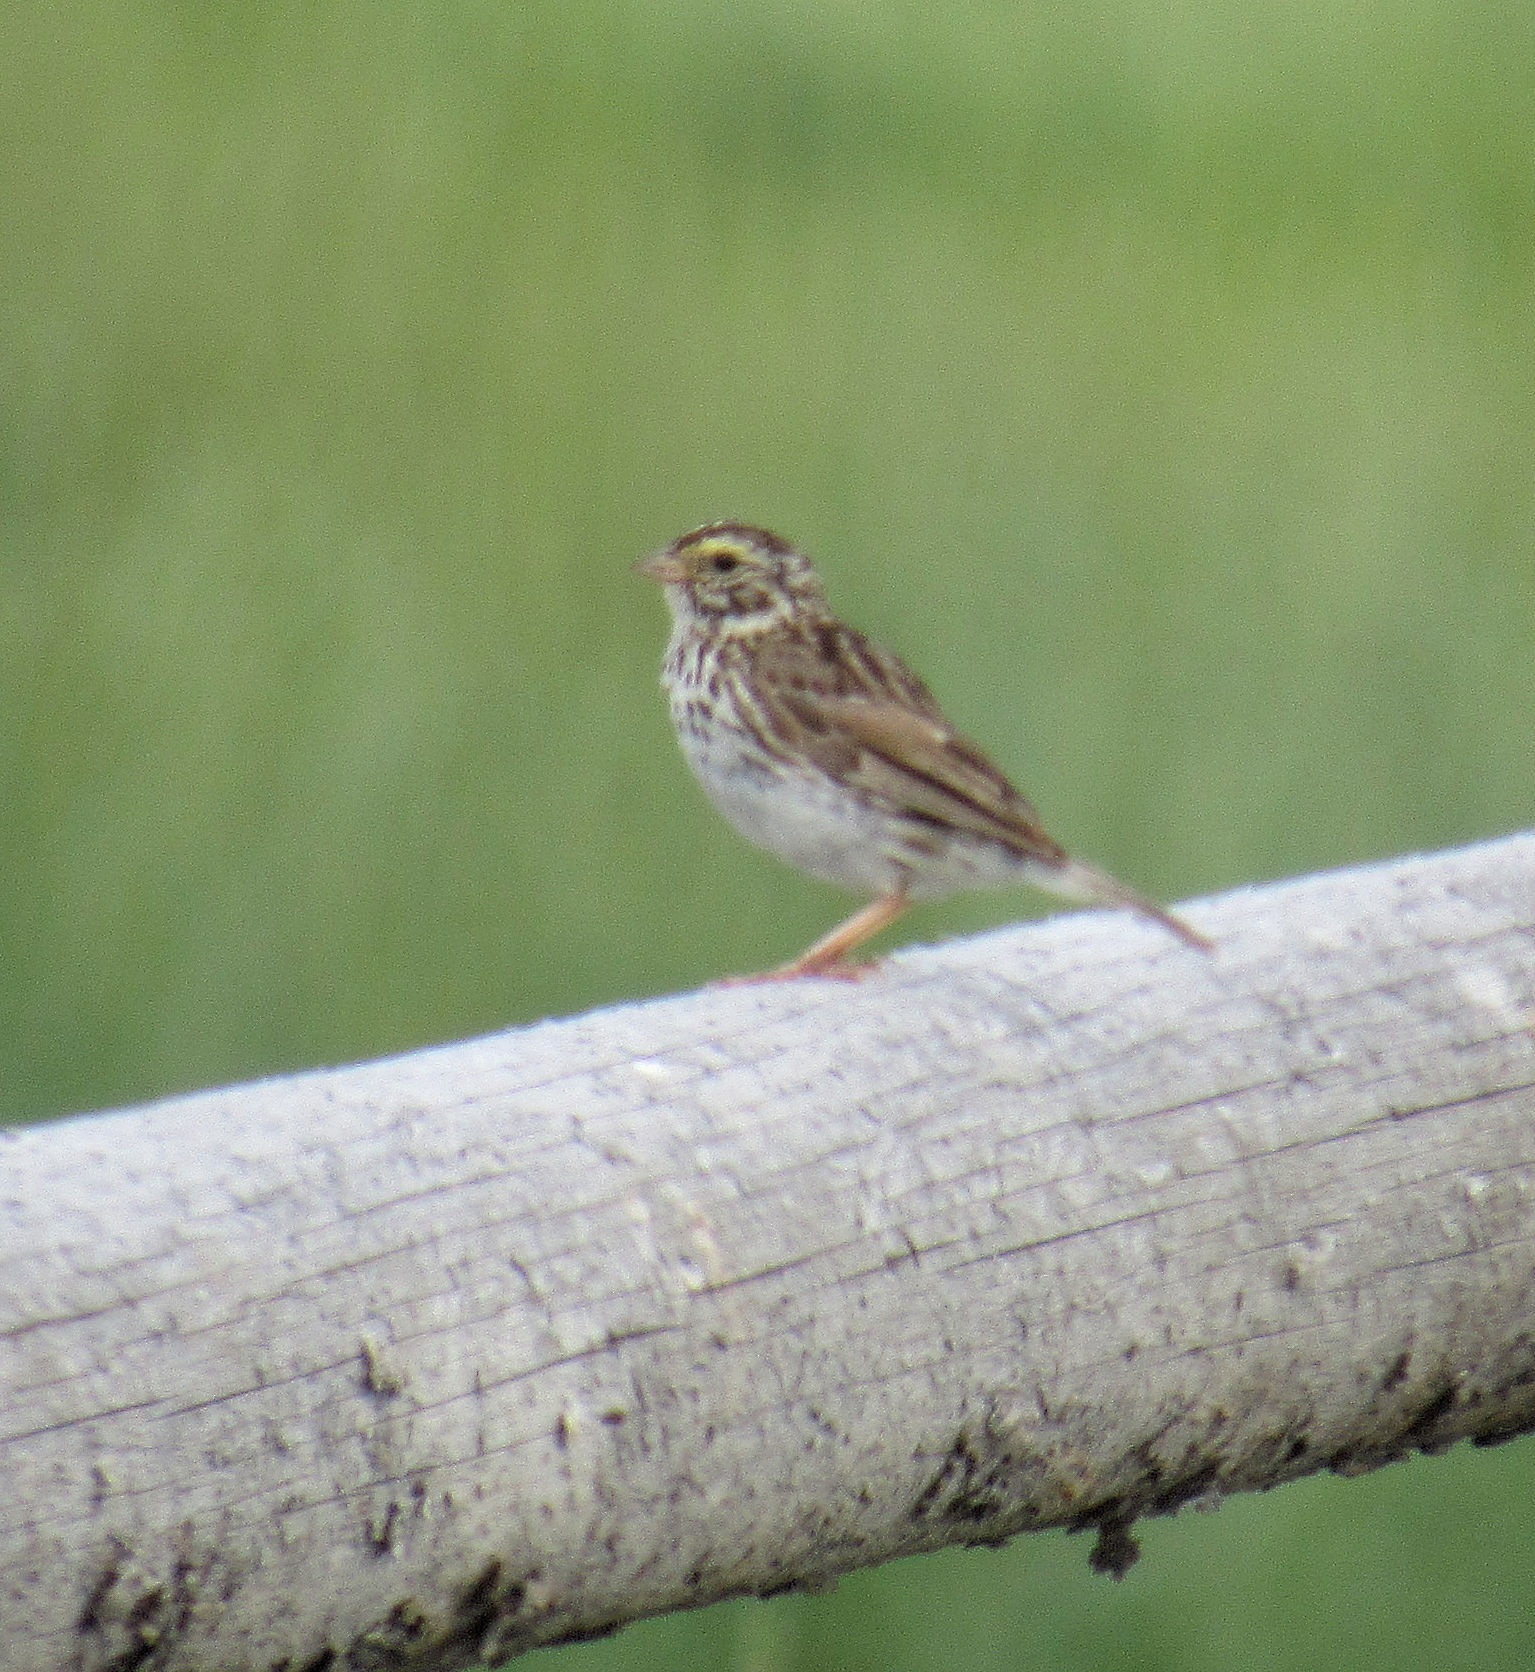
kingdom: Animalia
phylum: Chordata
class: Aves
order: Passeriformes
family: Passerellidae
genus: Passerculus
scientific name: Passerculus sandwichensis
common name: Savannah sparrow
